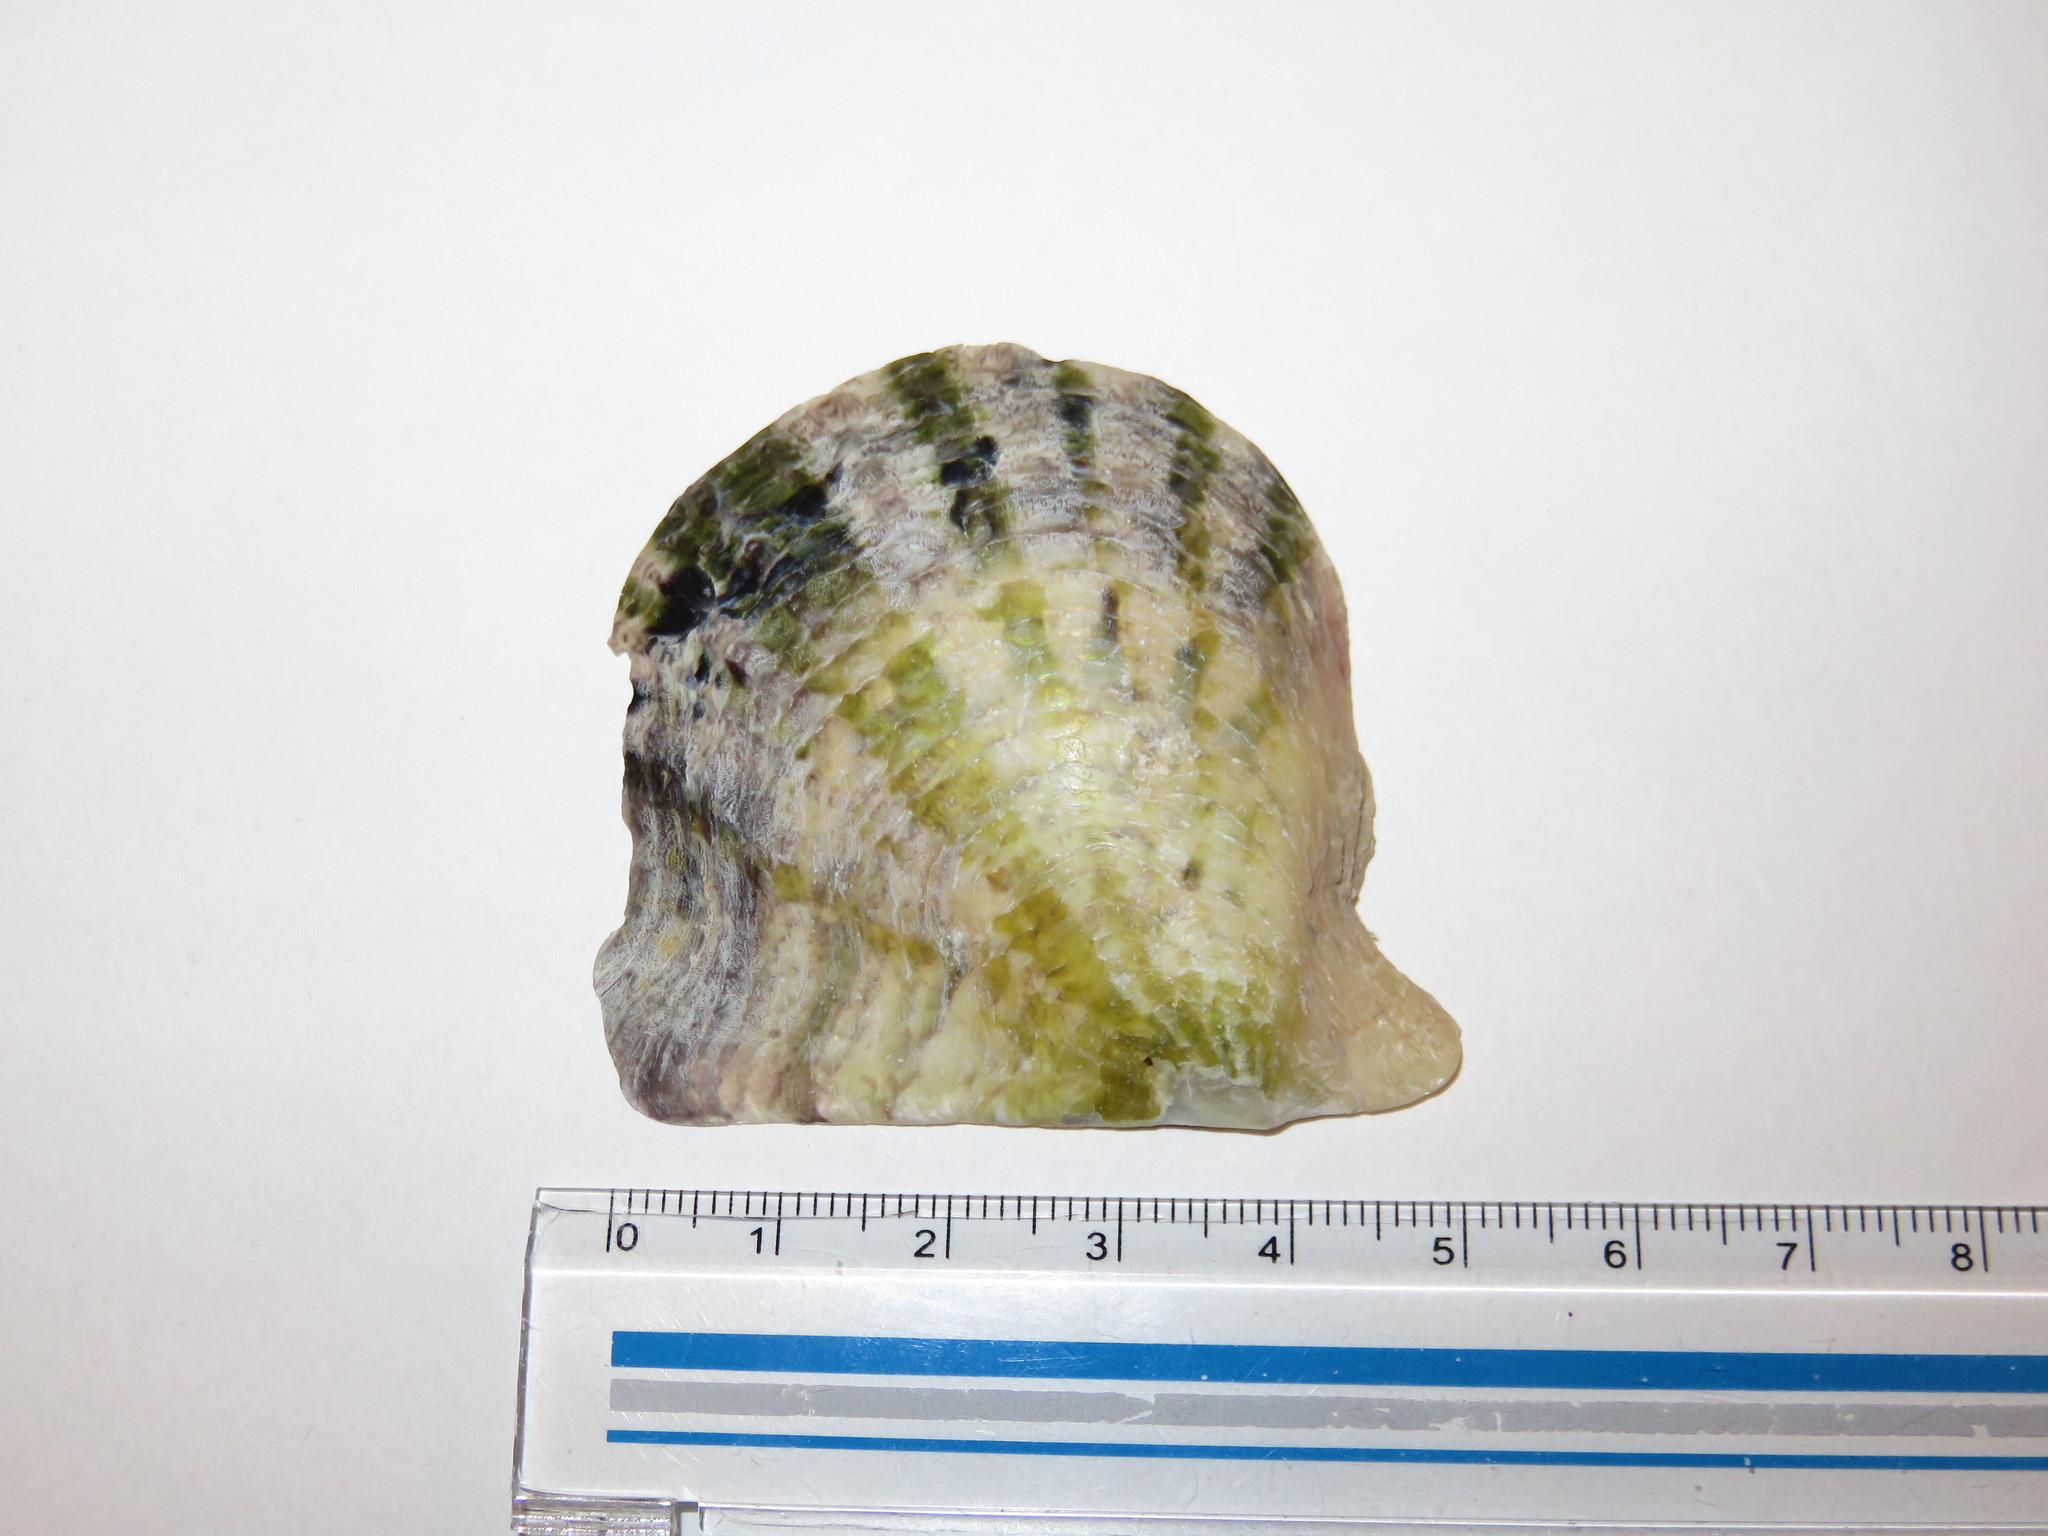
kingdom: Animalia
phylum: Mollusca
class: Bivalvia
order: Ostreida
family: Margaritidae
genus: Pinctada
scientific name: Pinctada fucata
